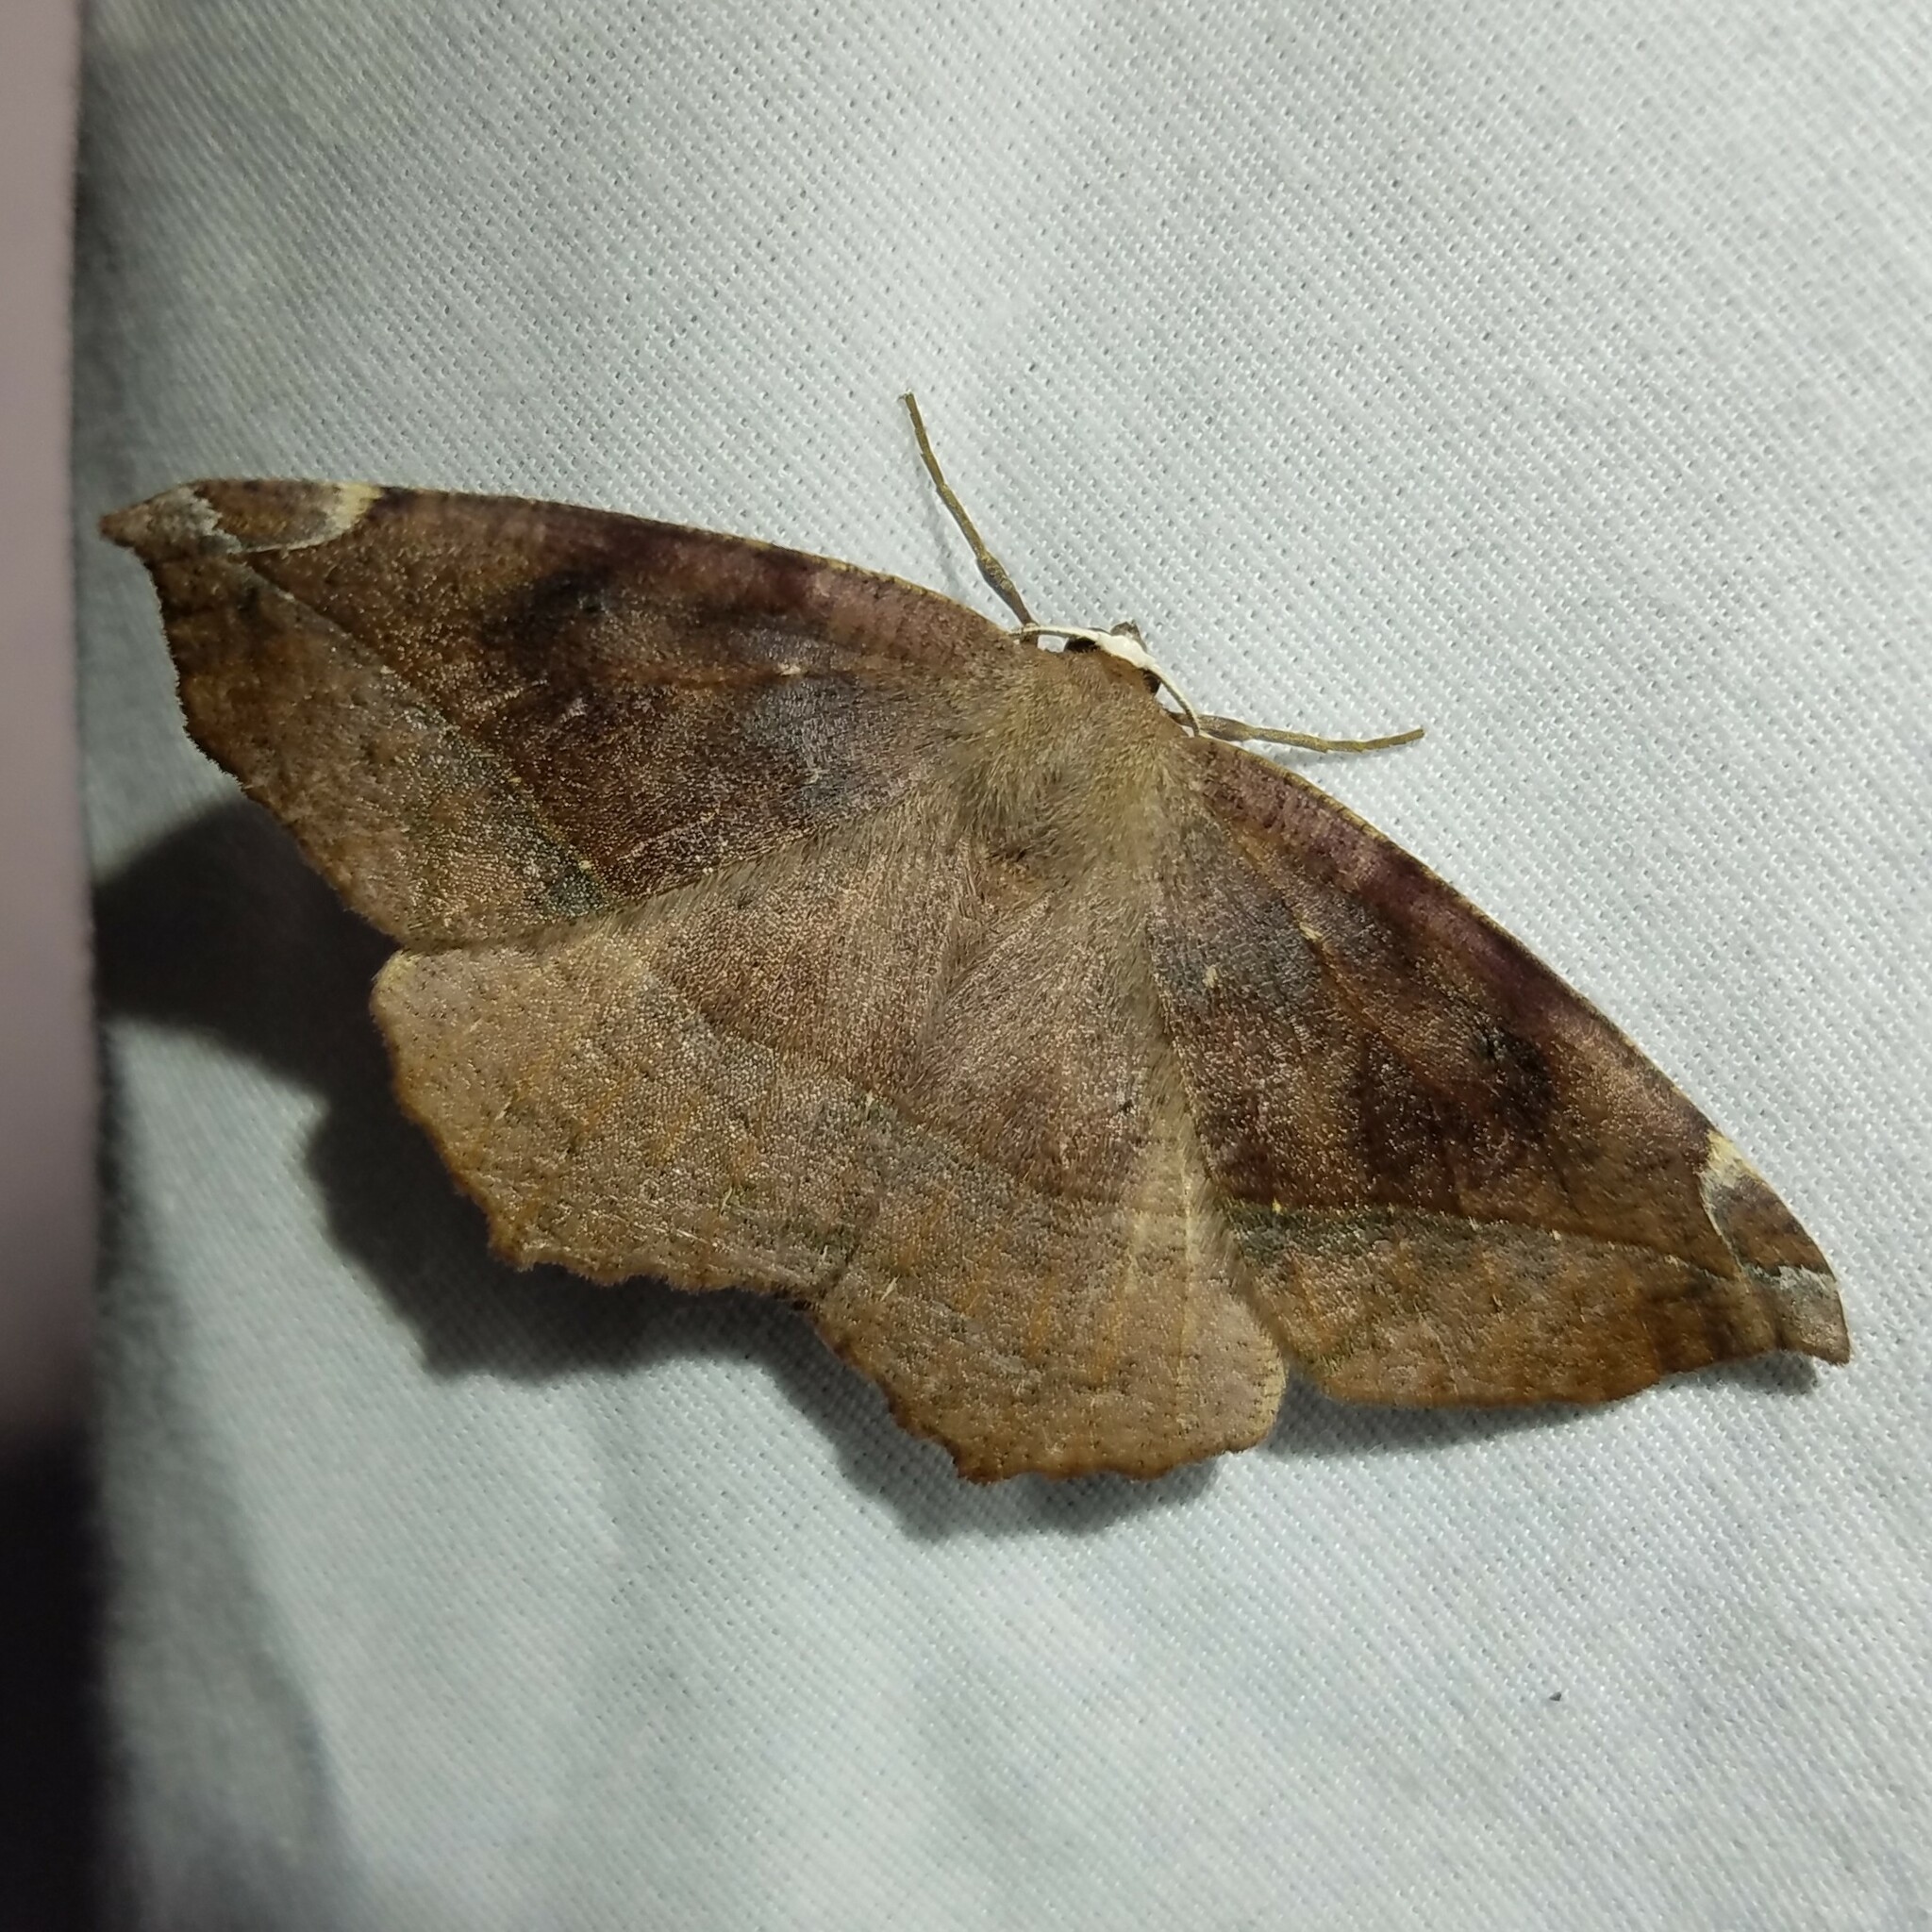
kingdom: Animalia
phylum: Arthropoda
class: Insecta
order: Lepidoptera
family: Geometridae
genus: Eutrapela
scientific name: Eutrapela clemataria
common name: Curved-toothed geometer
